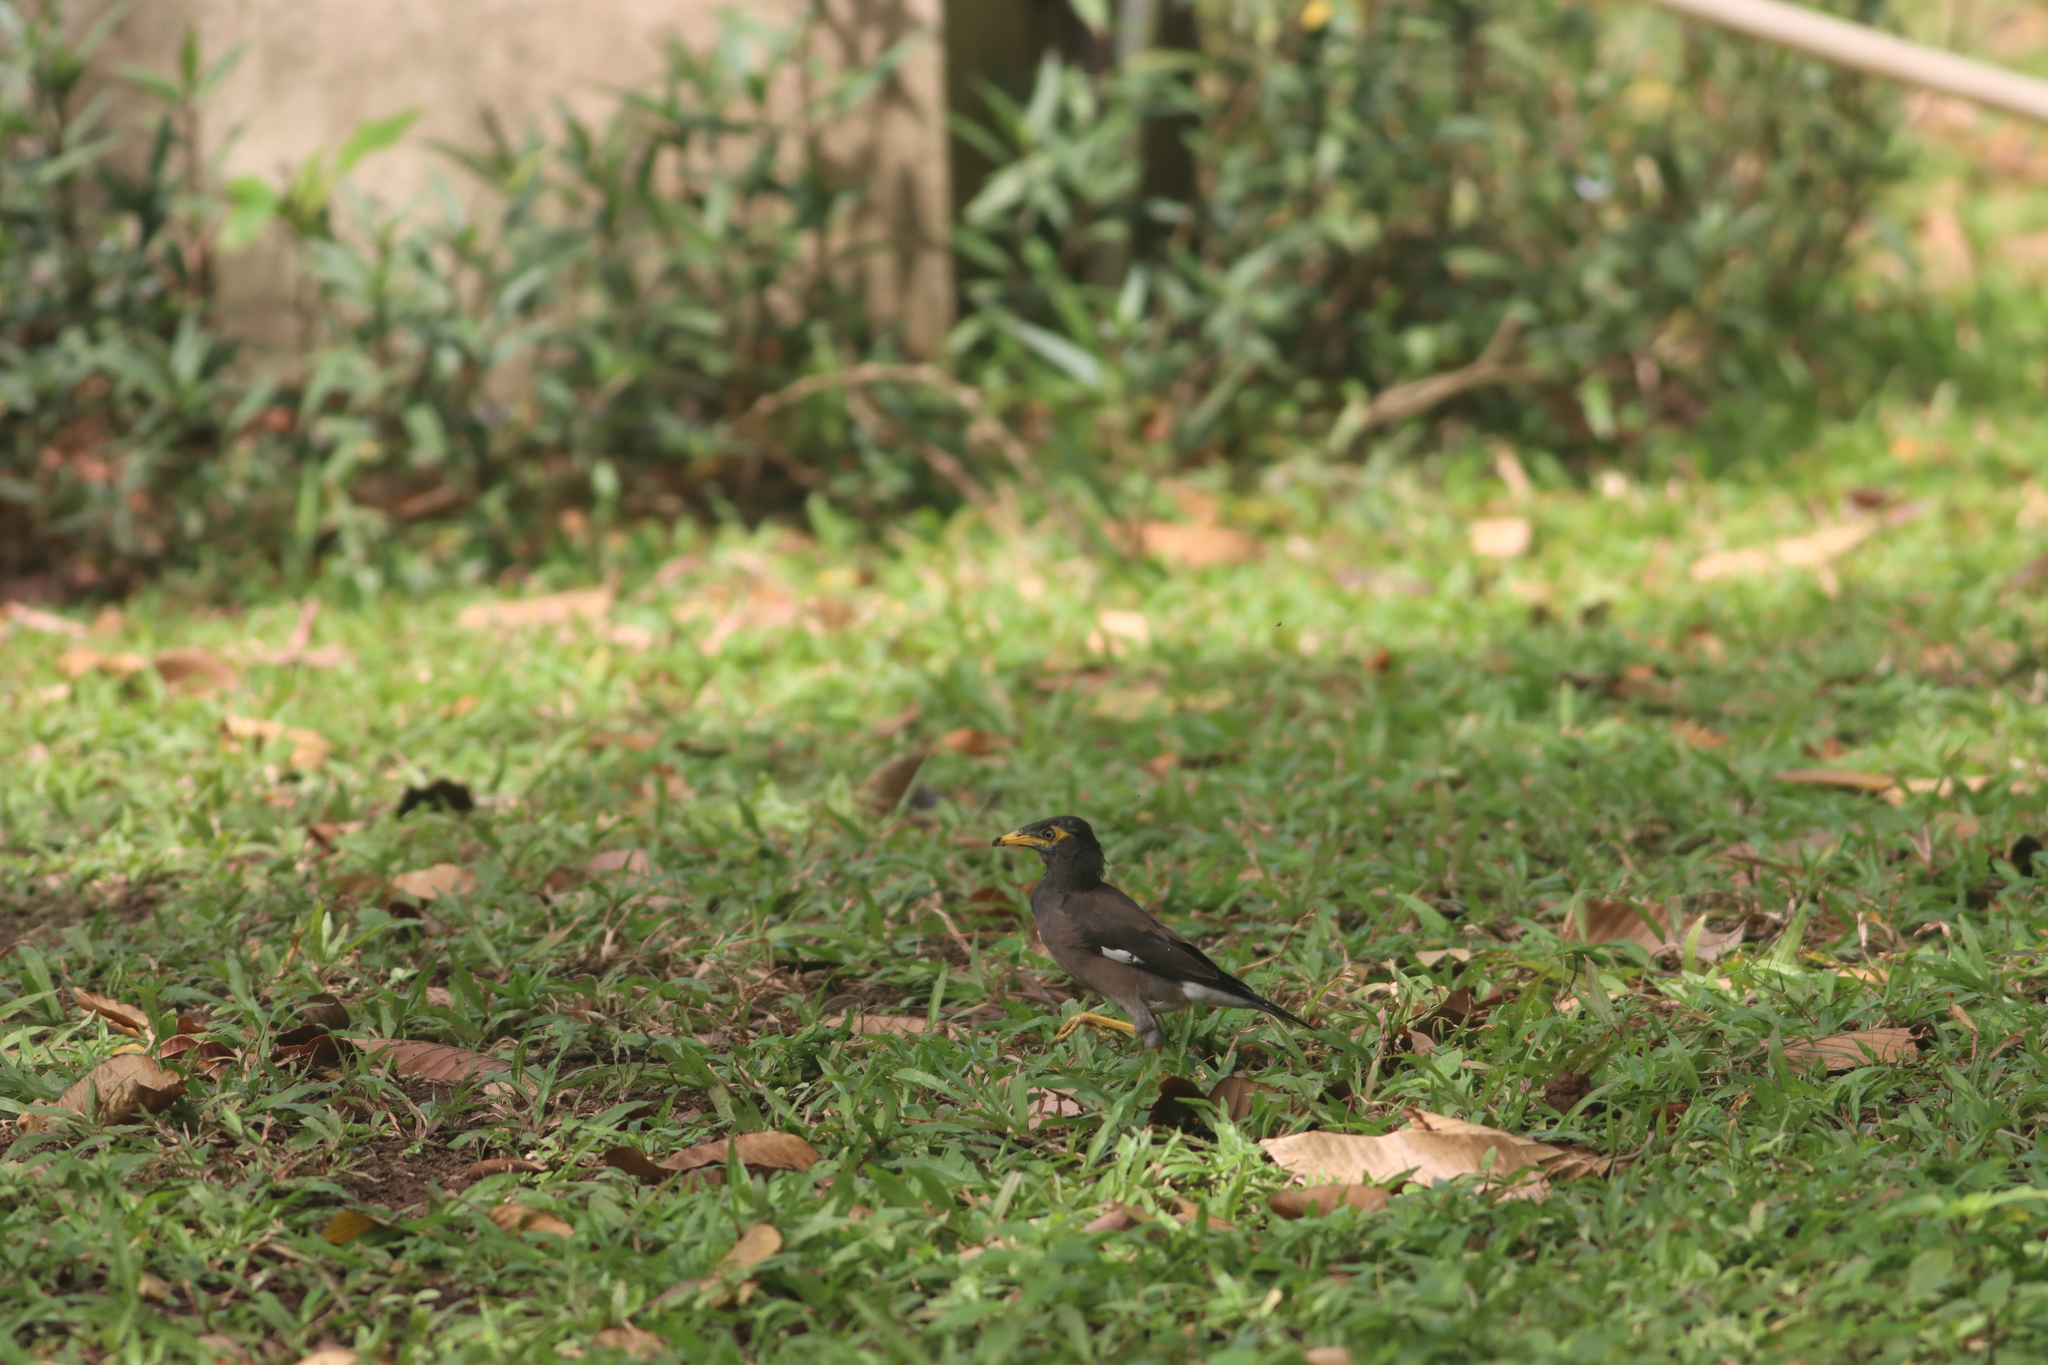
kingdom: Animalia
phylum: Chordata
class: Aves
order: Passeriformes
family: Sturnidae
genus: Acridotheres
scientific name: Acridotheres tristis
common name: Common myna
